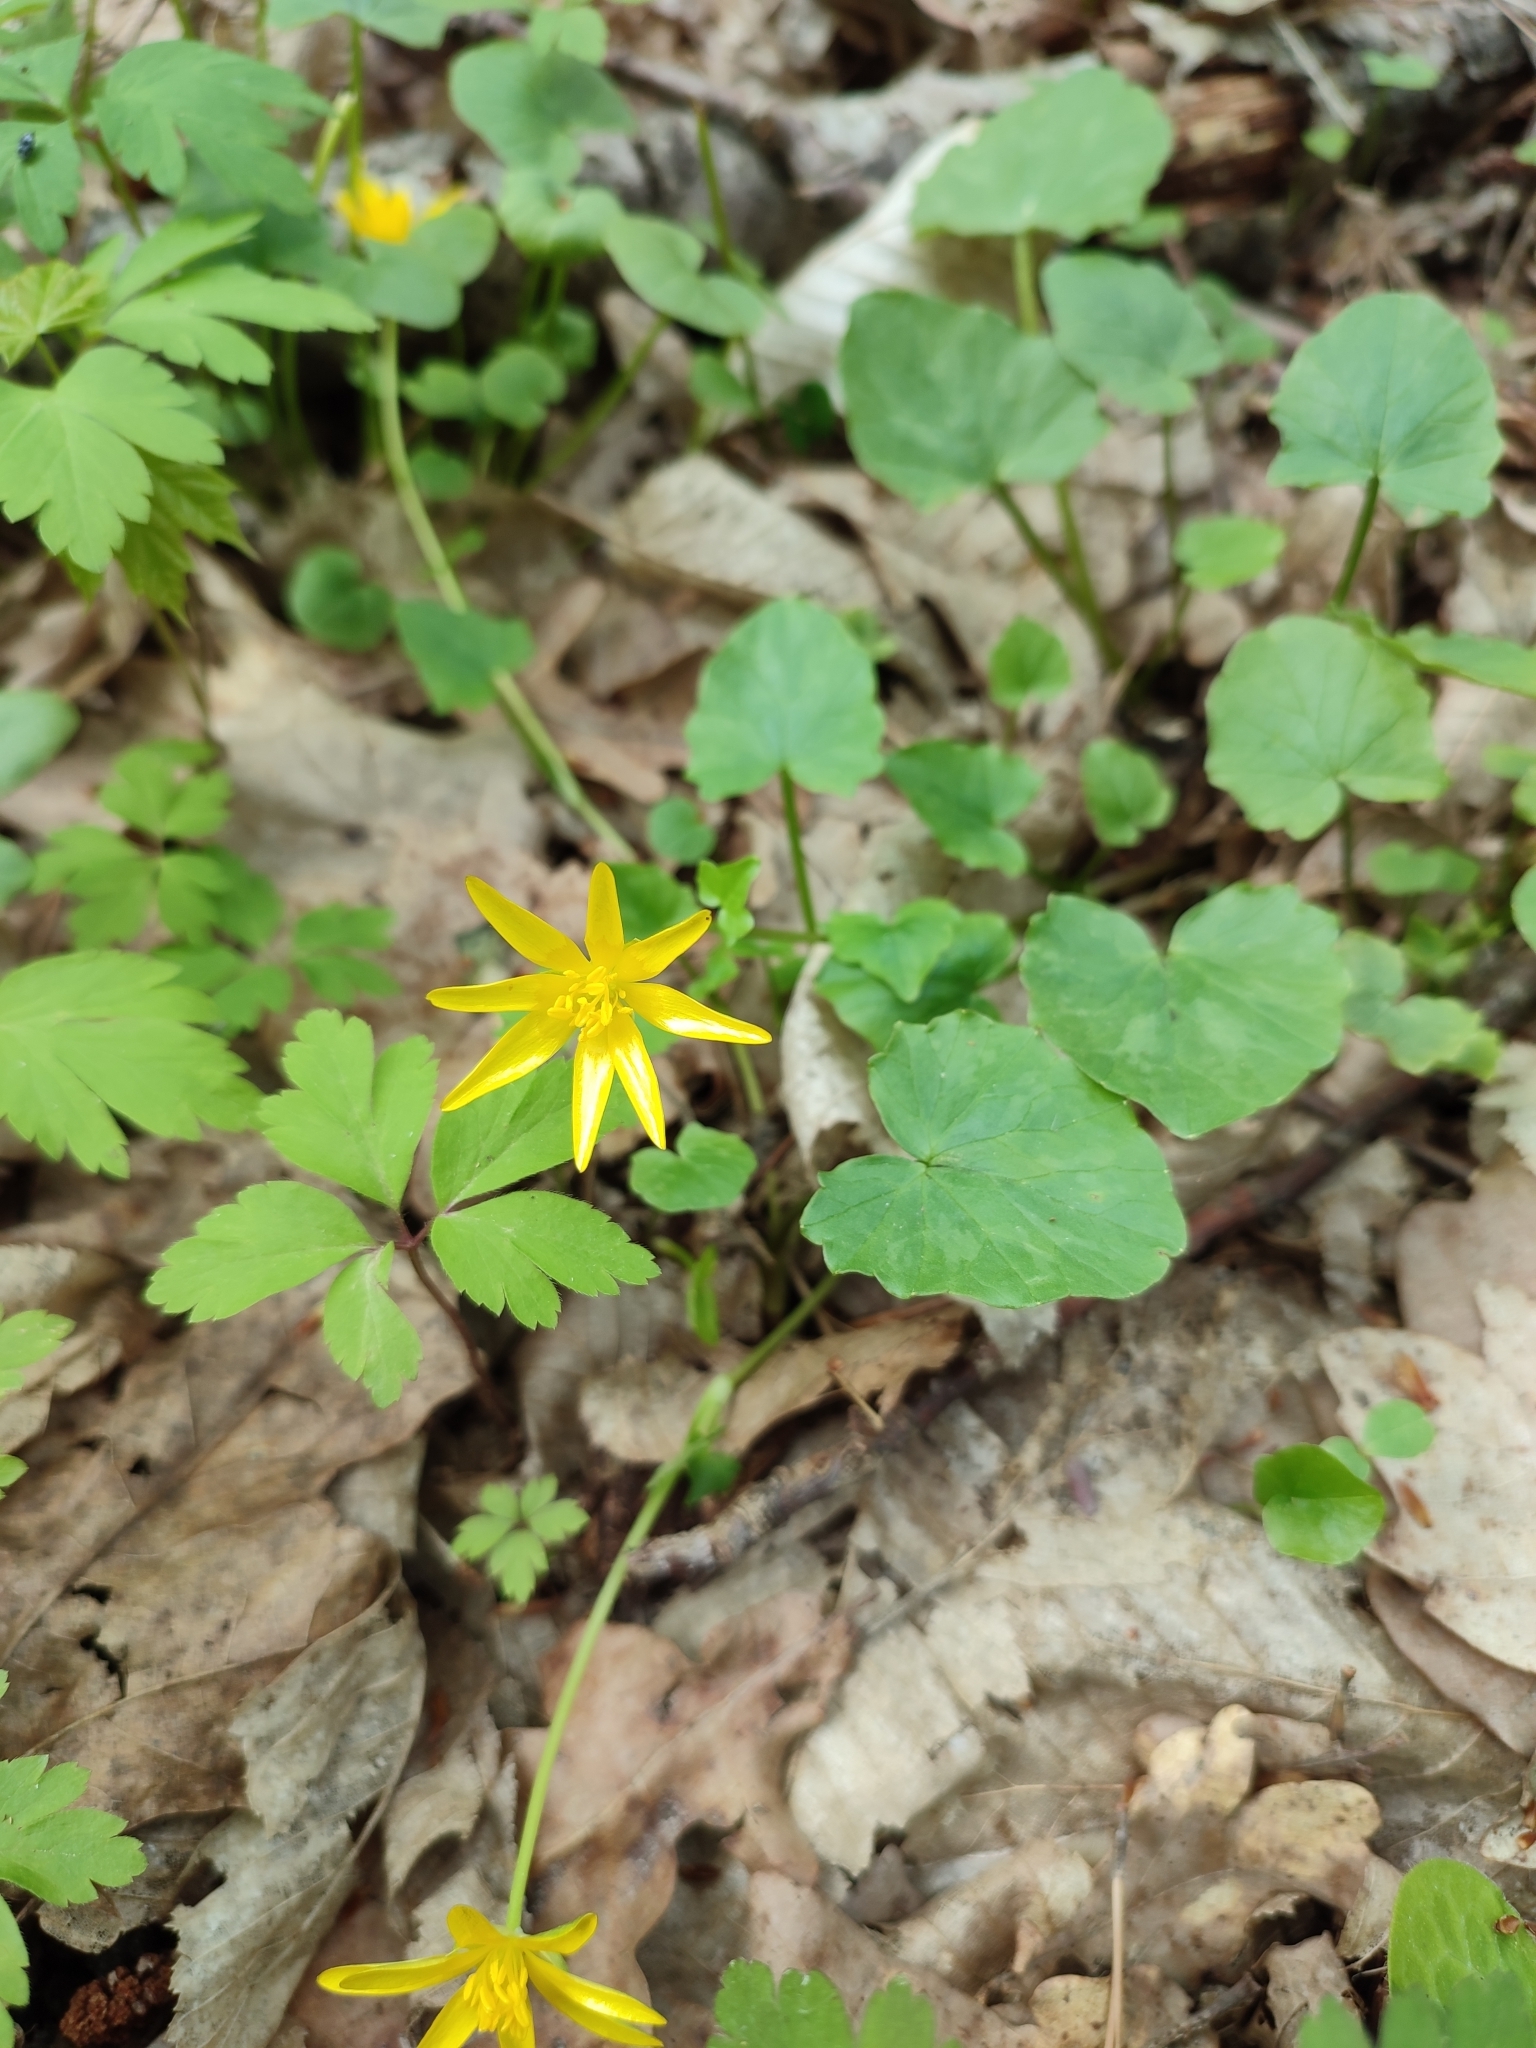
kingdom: Plantae
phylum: Tracheophyta
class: Magnoliopsida
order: Ranunculales
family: Ranunculaceae
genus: Ficaria
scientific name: Ficaria verna
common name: Lesser celandine
